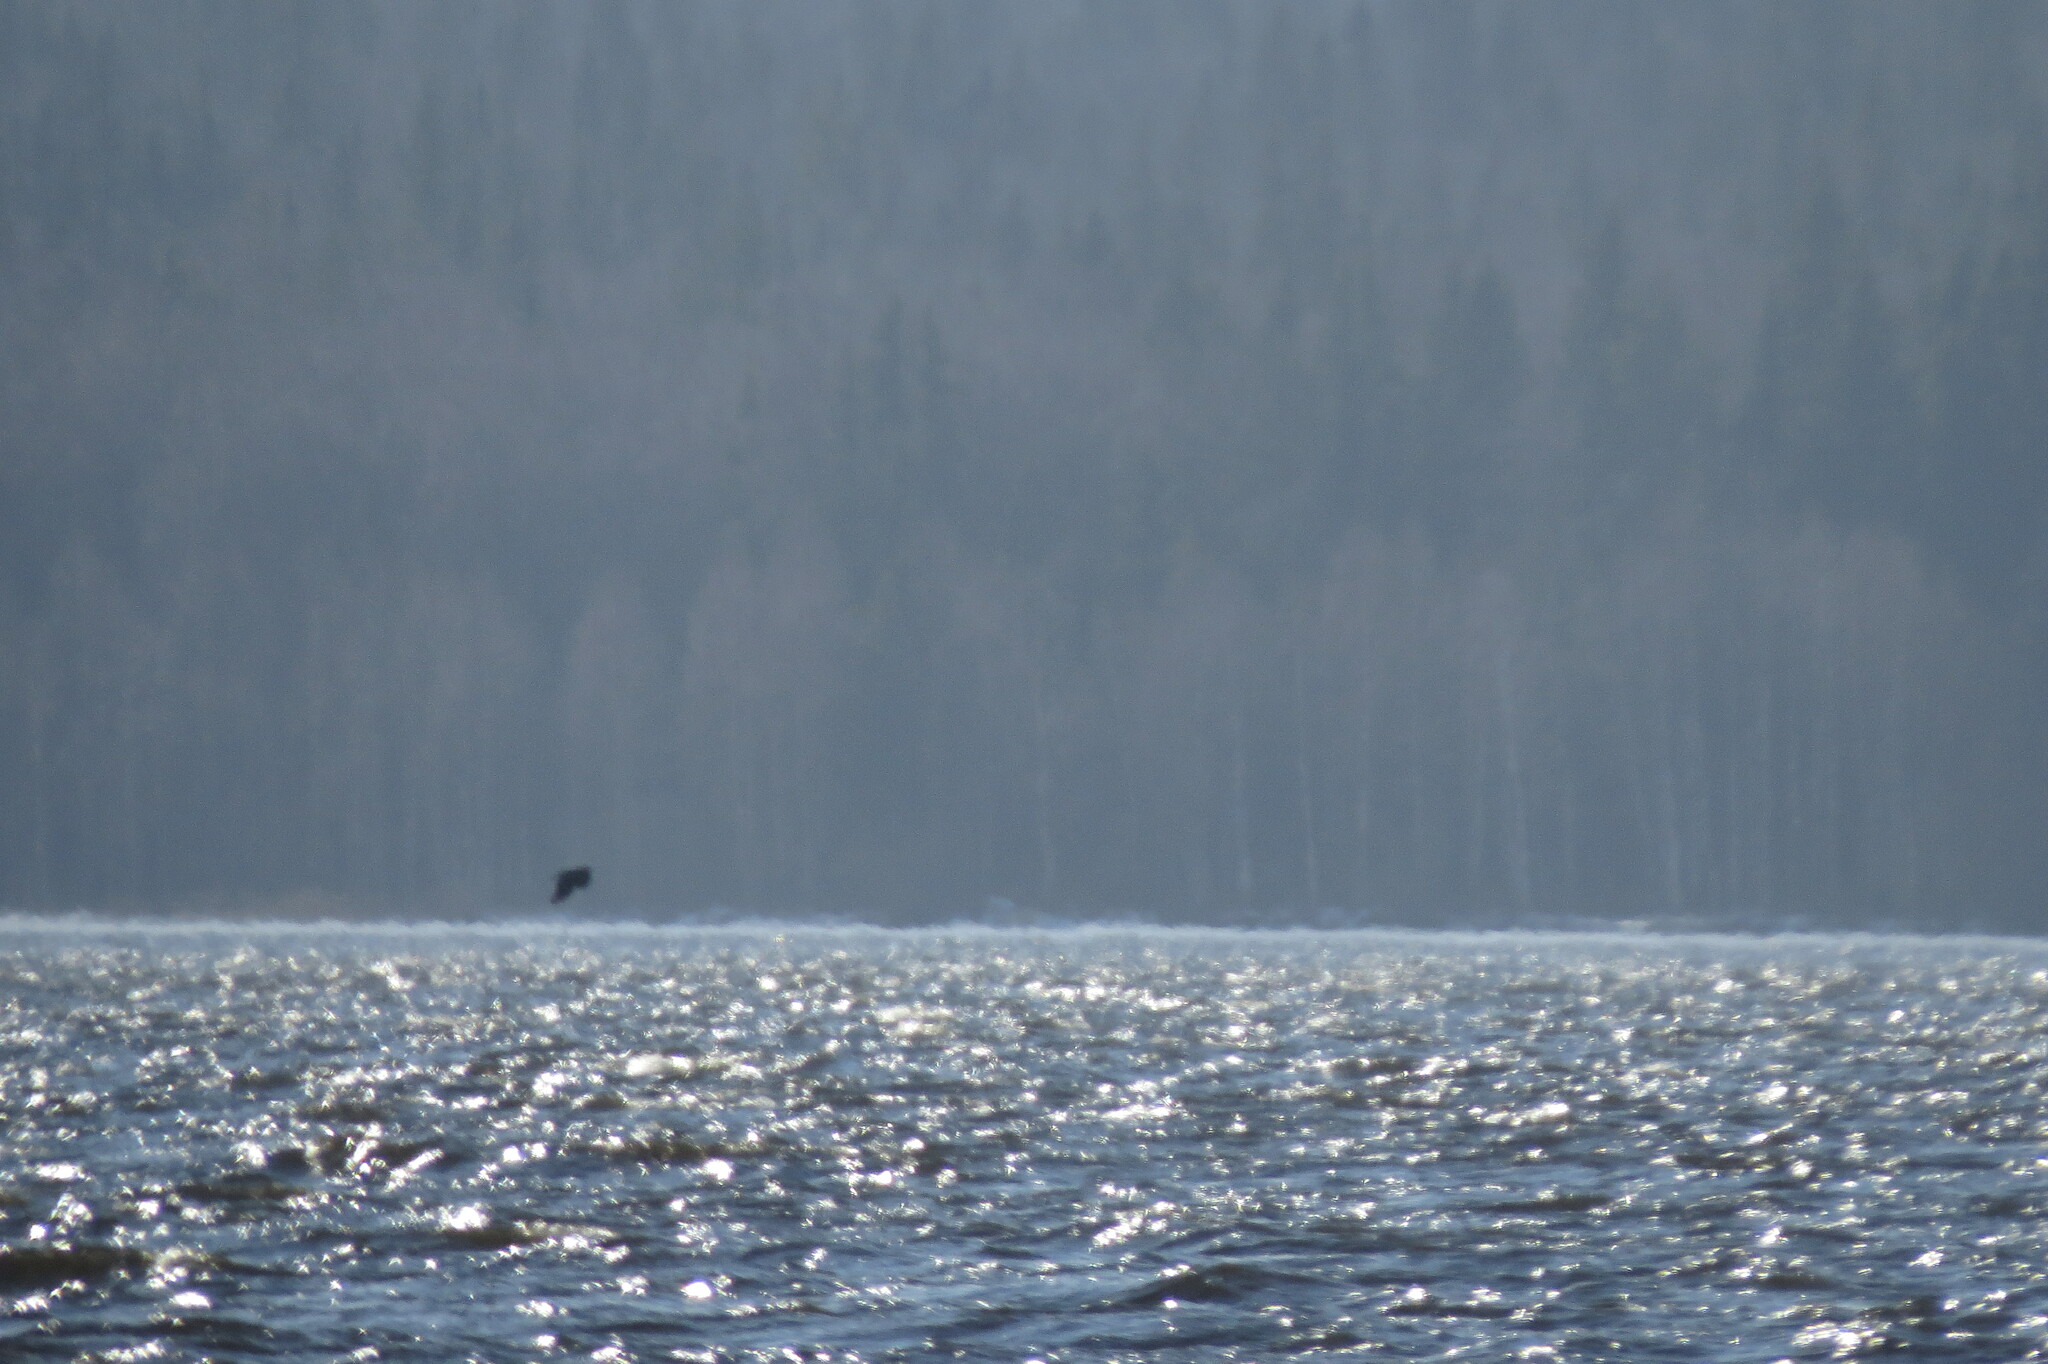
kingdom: Animalia
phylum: Chordata
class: Aves
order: Passeriformes
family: Corvidae
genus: Corvus
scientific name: Corvus corax
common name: Common raven
